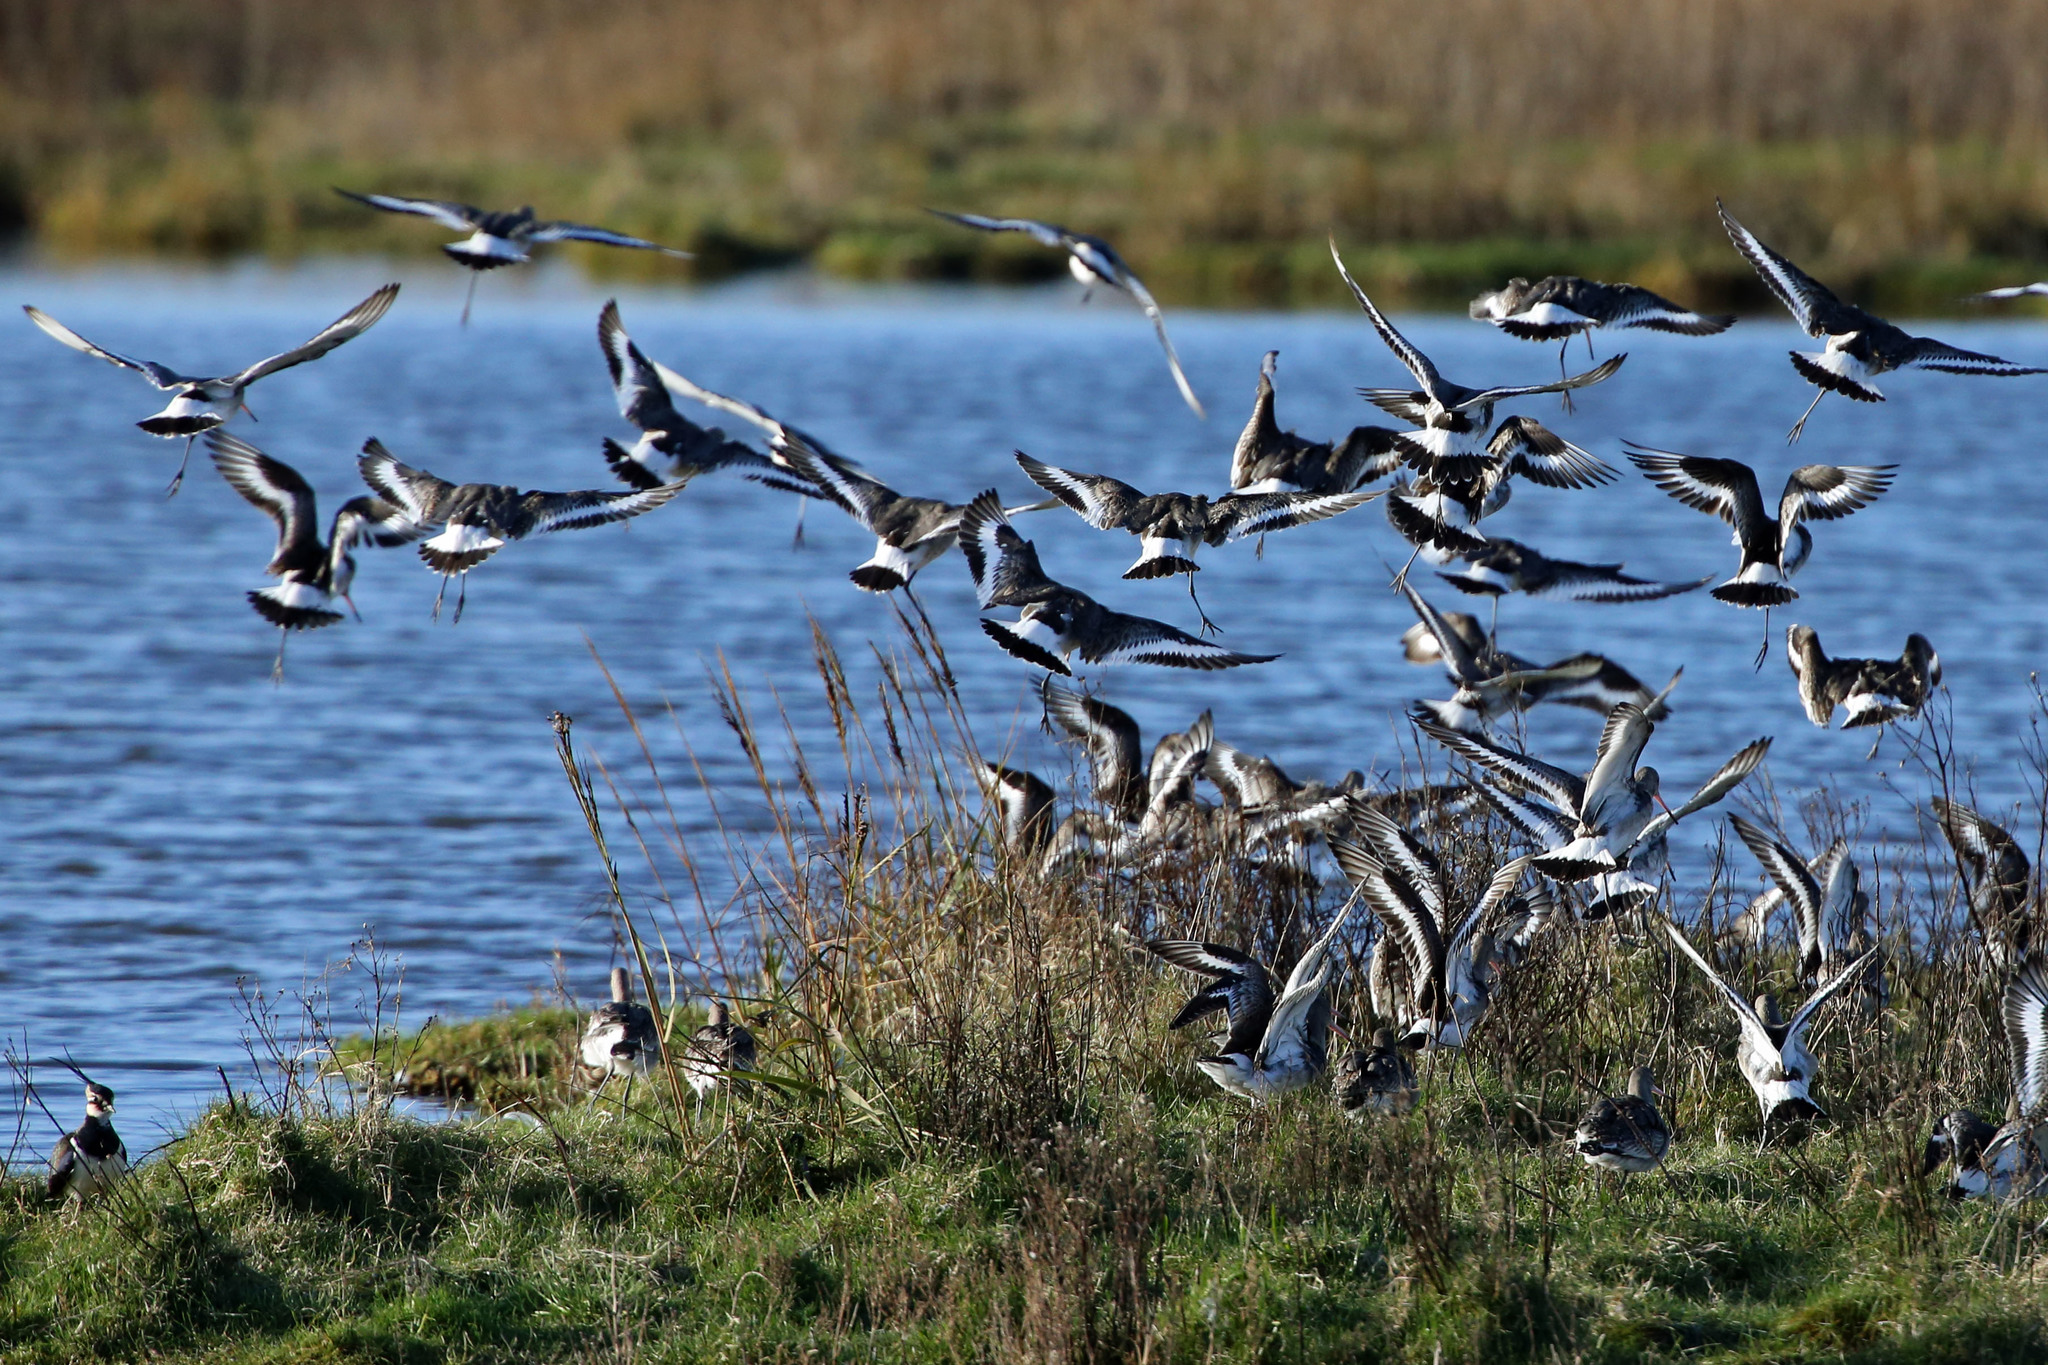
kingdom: Animalia
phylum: Chordata
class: Aves
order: Charadriiformes
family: Scolopacidae
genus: Limosa
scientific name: Limosa limosa
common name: Black-tailed godwit
